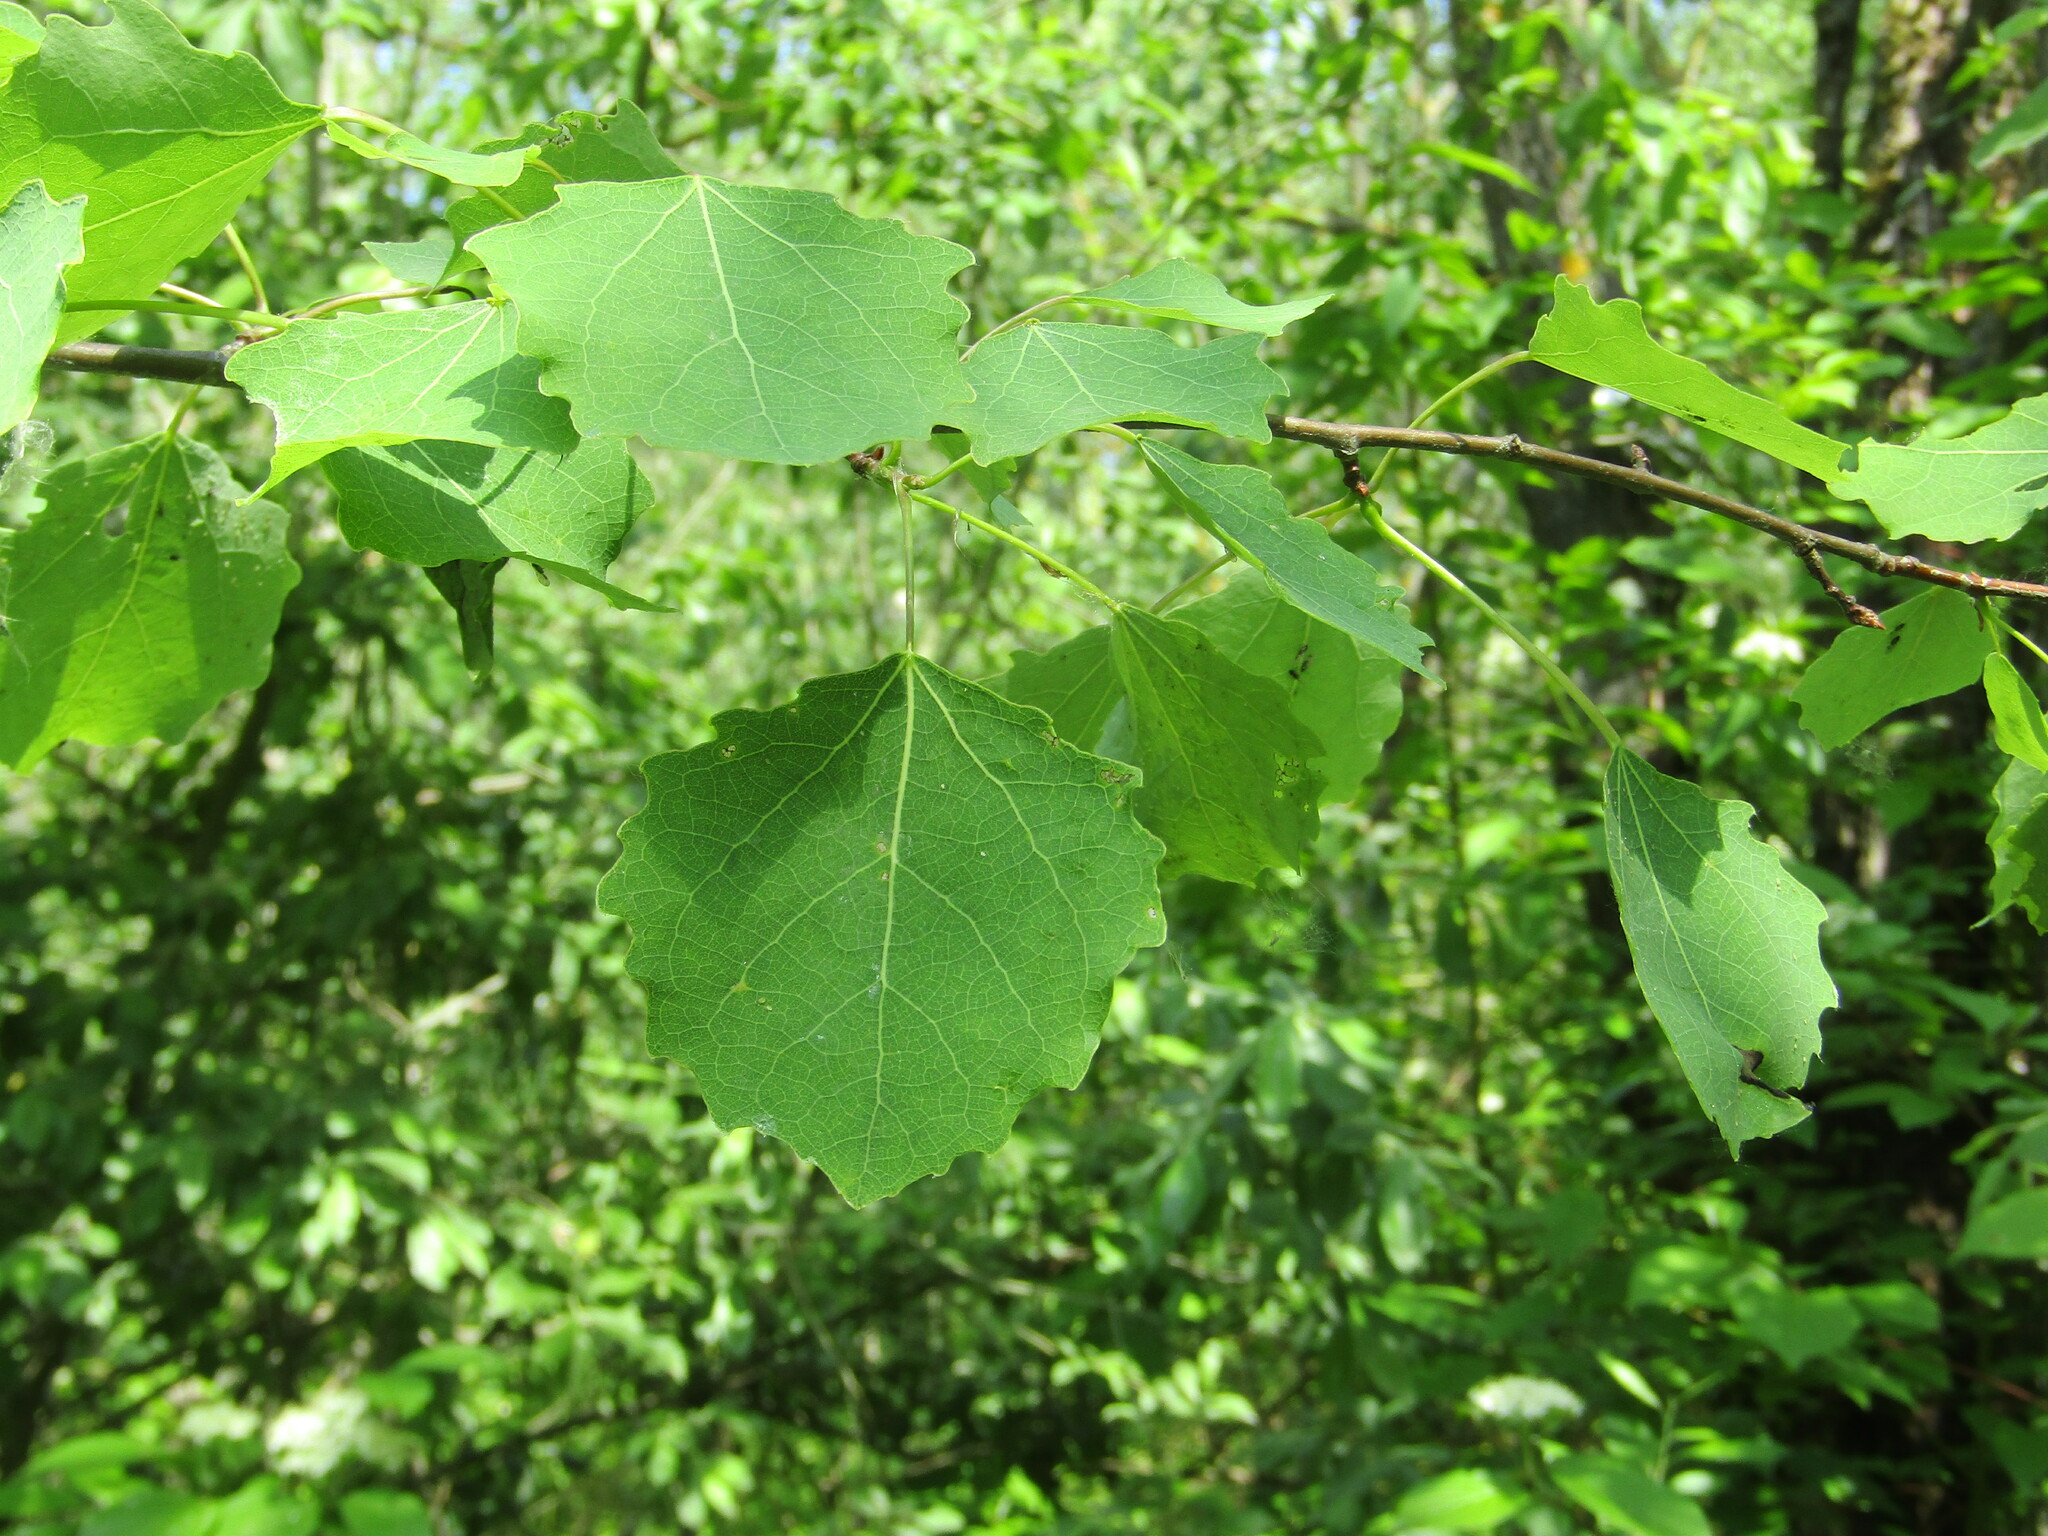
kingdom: Plantae
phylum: Tracheophyta
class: Magnoliopsida
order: Malpighiales
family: Salicaceae
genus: Populus
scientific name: Populus tremula
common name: European aspen
